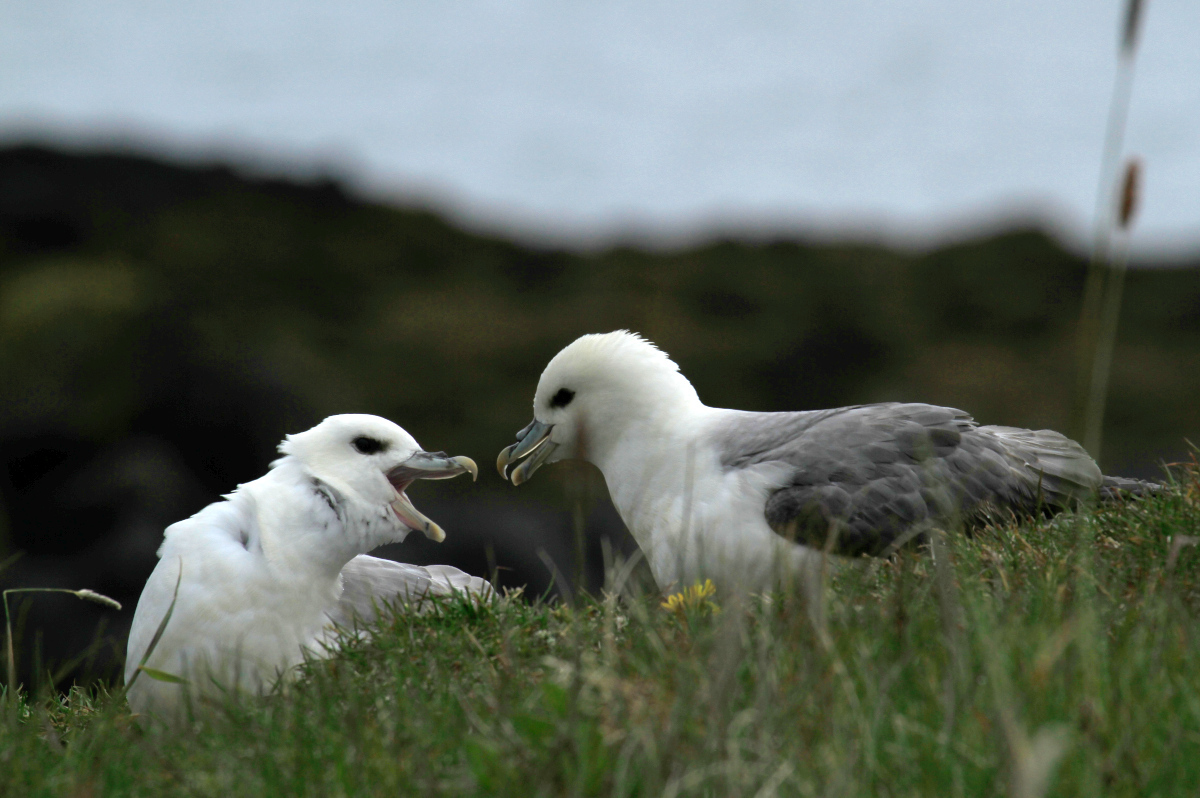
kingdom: Animalia
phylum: Chordata
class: Aves
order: Procellariiformes
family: Procellariidae
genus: Fulmarus
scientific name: Fulmarus glacialis
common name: Northern fulmar
